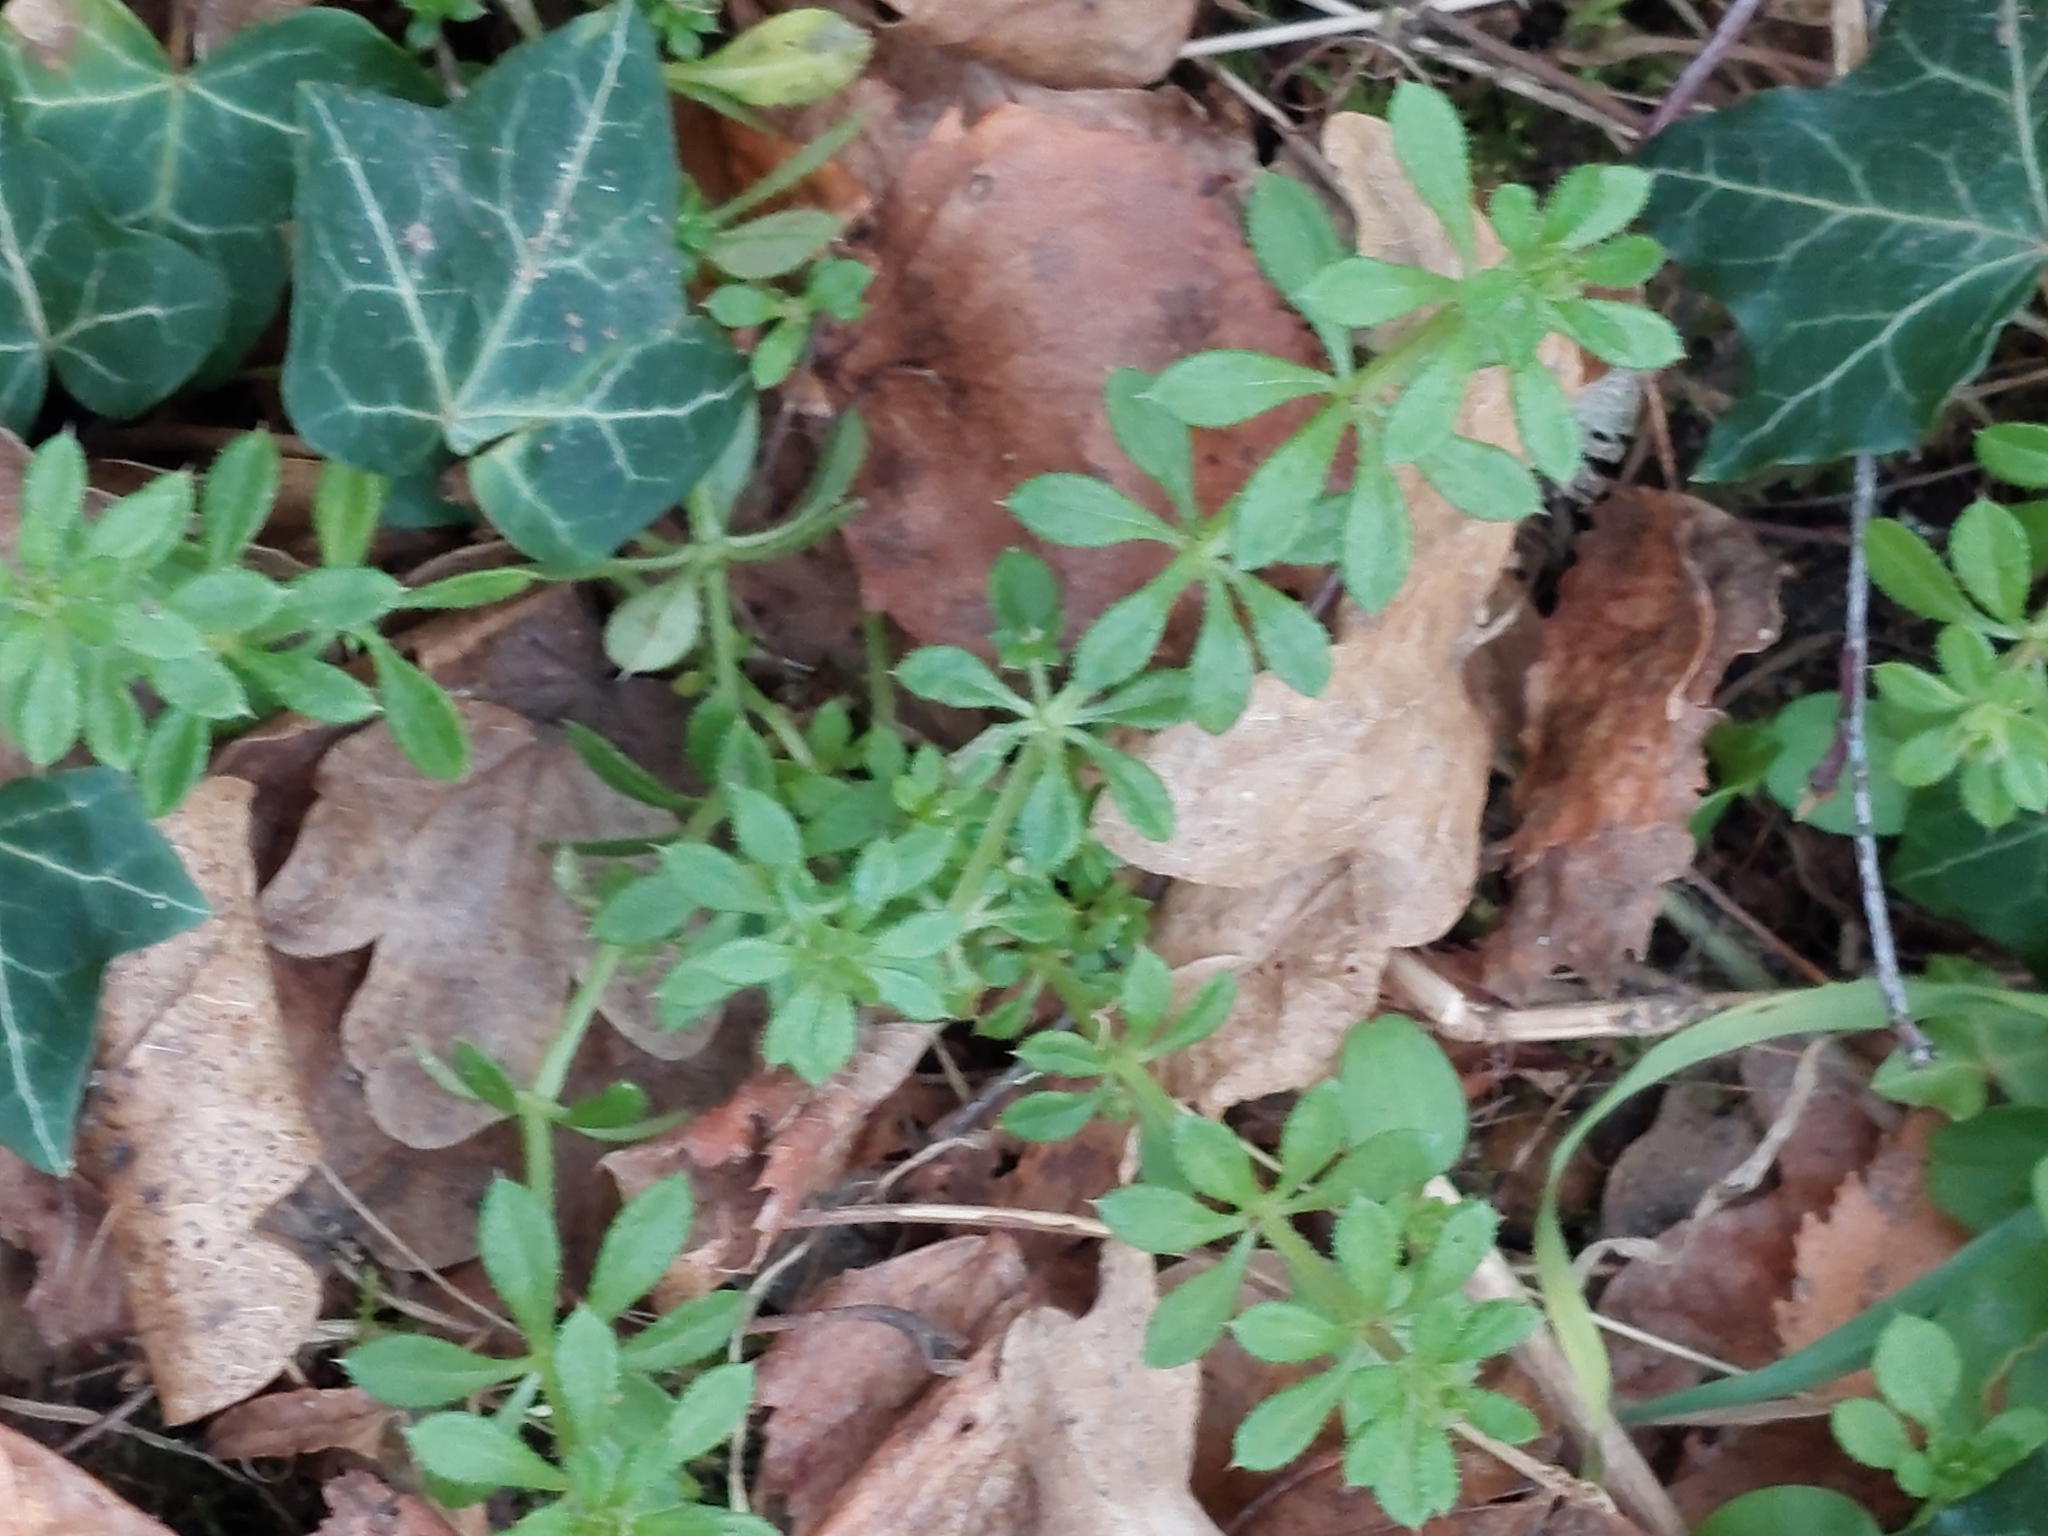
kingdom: Plantae
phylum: Tracheophyta
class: Magnoliopsida
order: Gentianales
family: Rubiaceae
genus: Galium
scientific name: Galium aparine
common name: Cleavers
